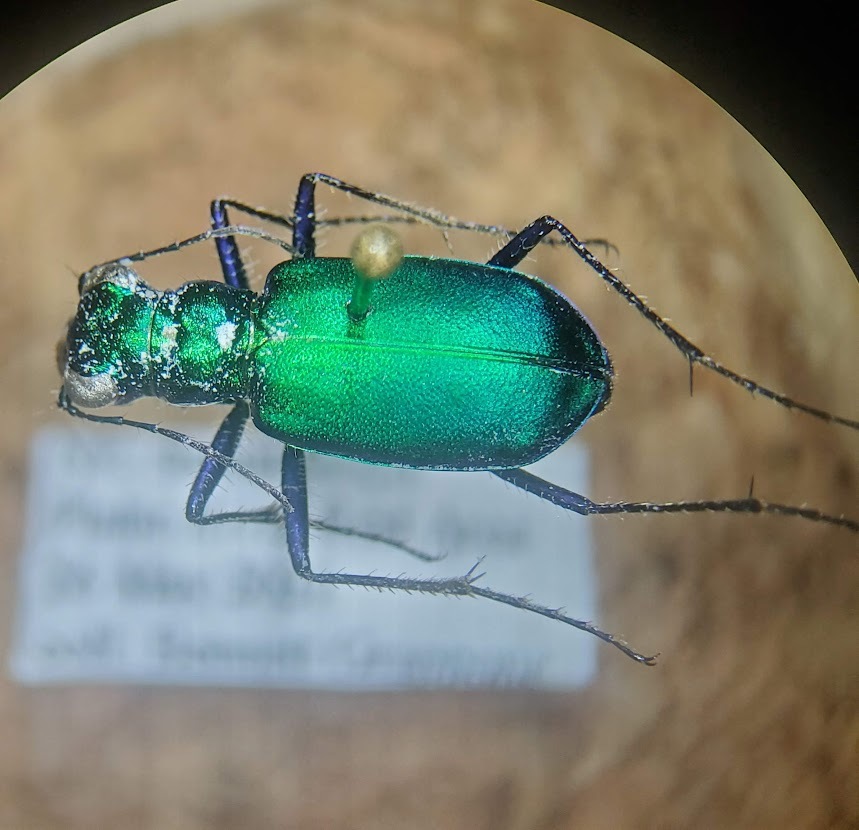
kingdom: Animalia
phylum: Arthropoda
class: Insecta
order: Coleoptera
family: Carabidae
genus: Cicindela
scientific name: Cicindela sexguttata
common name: Six-spotted tiger beetle
